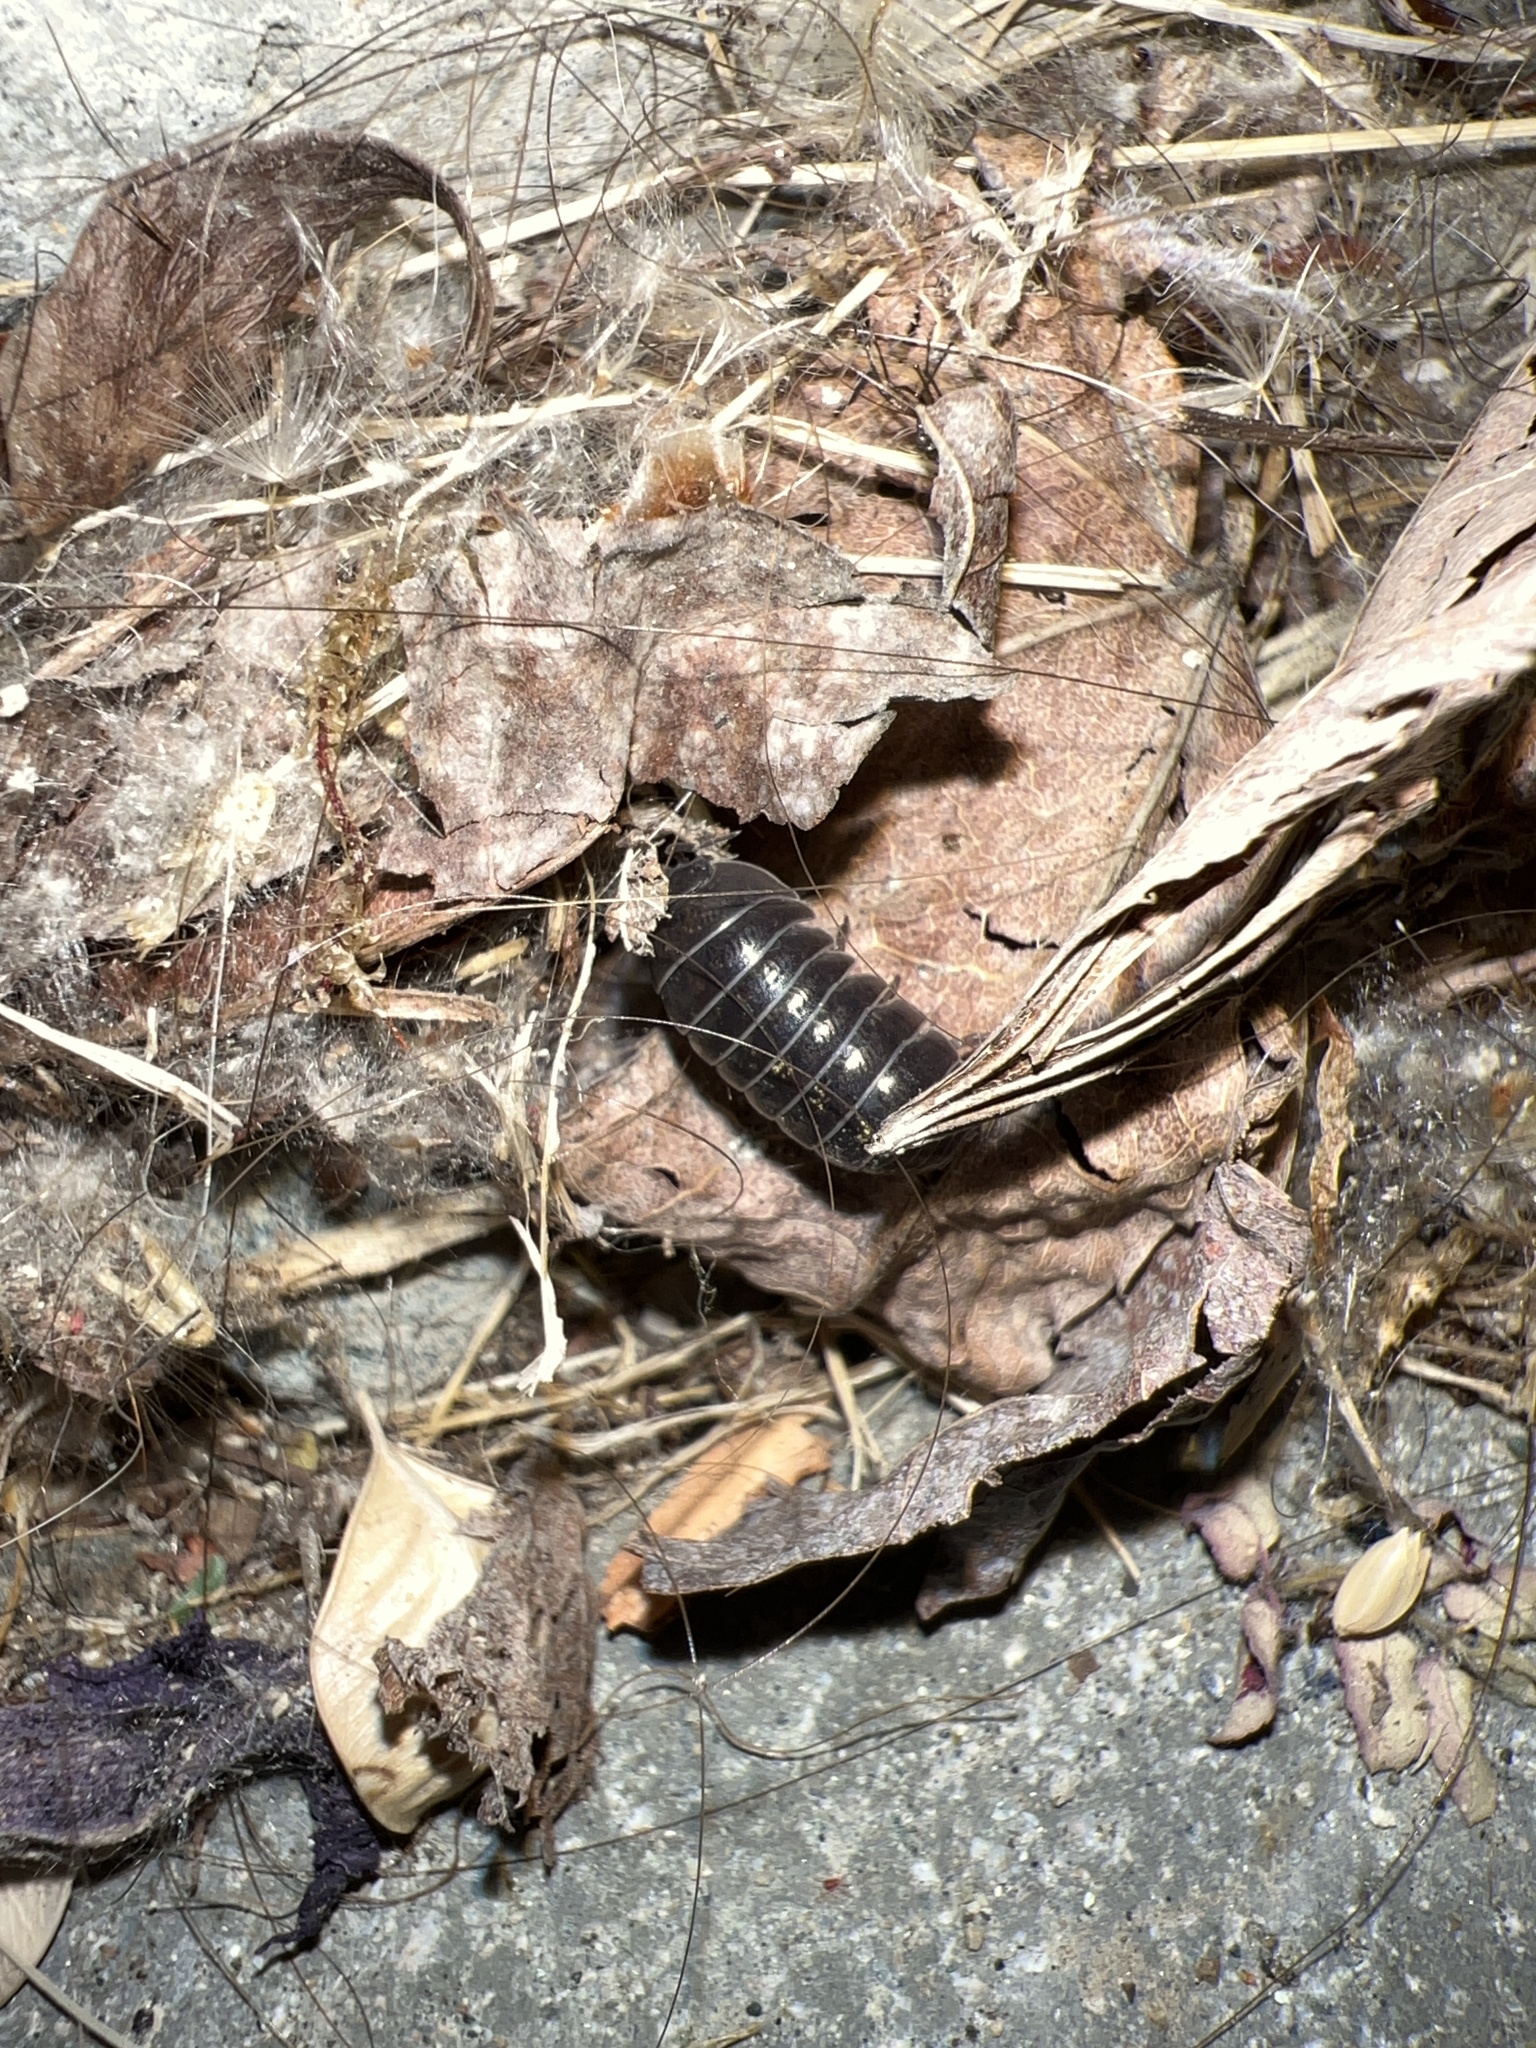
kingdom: Animalia
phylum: Arthropoda
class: Malacostraca
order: Isopoda
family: Armadillidiidae
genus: Armadillidium
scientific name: Armadillidium vulgare
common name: Common pill woodlouse
